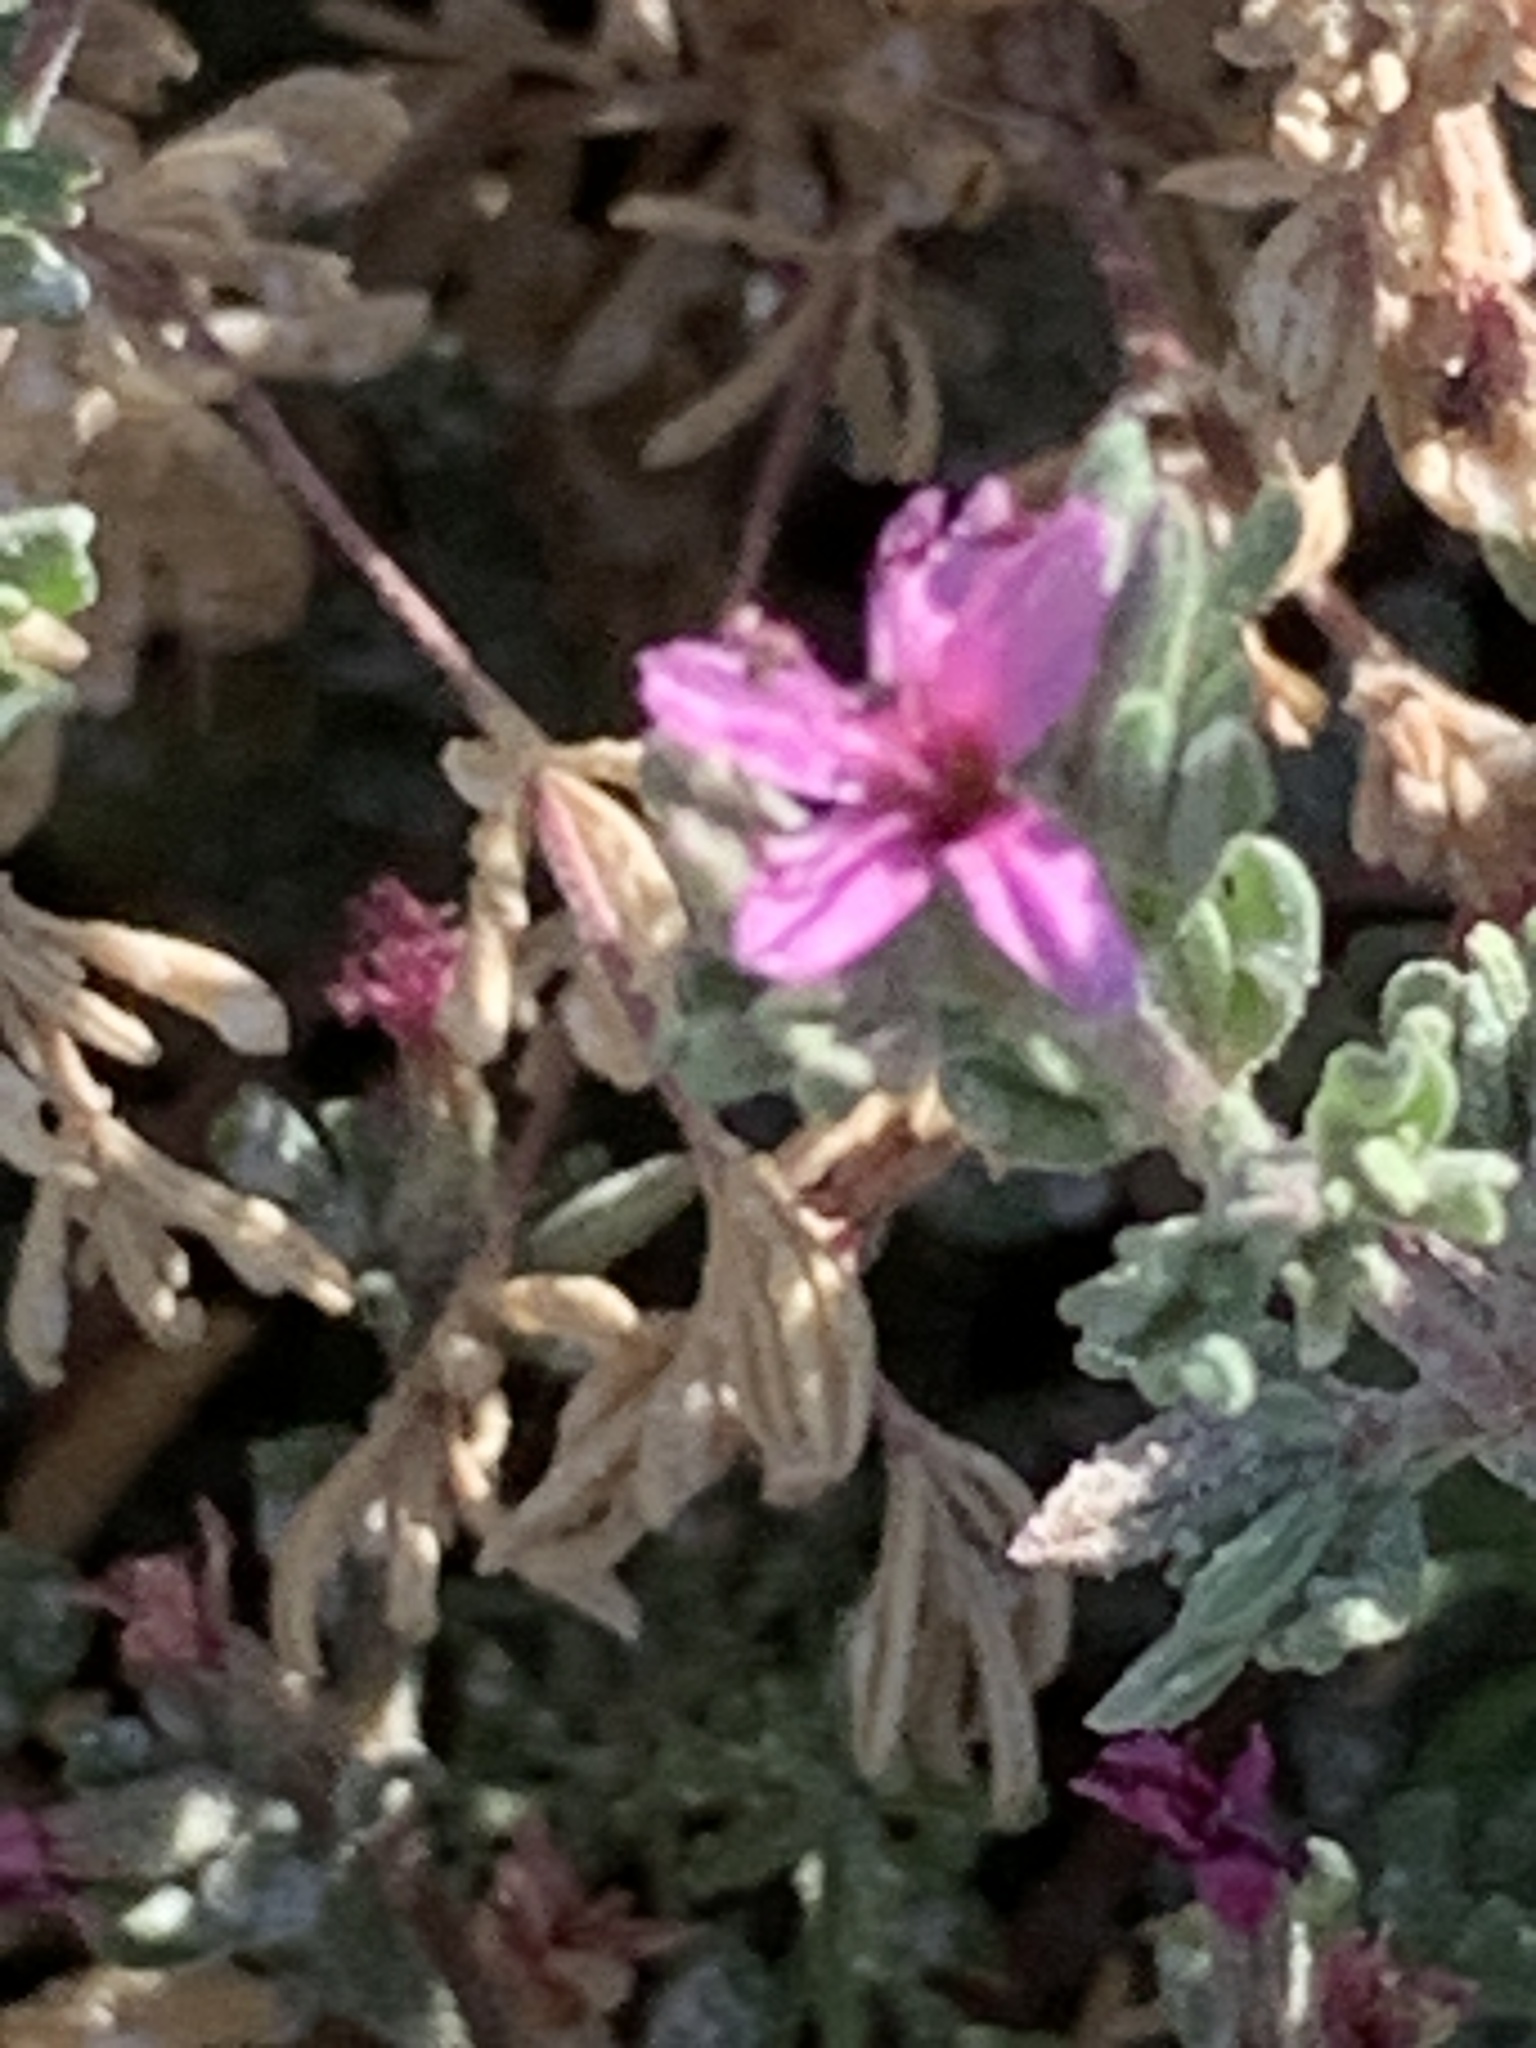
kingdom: Plantae
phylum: Tracheophyta
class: Magnoliopsida
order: Caryophyllales
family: Frankeniaceae
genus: Frankenia
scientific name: Frankenia salina
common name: Alkali seaheath
